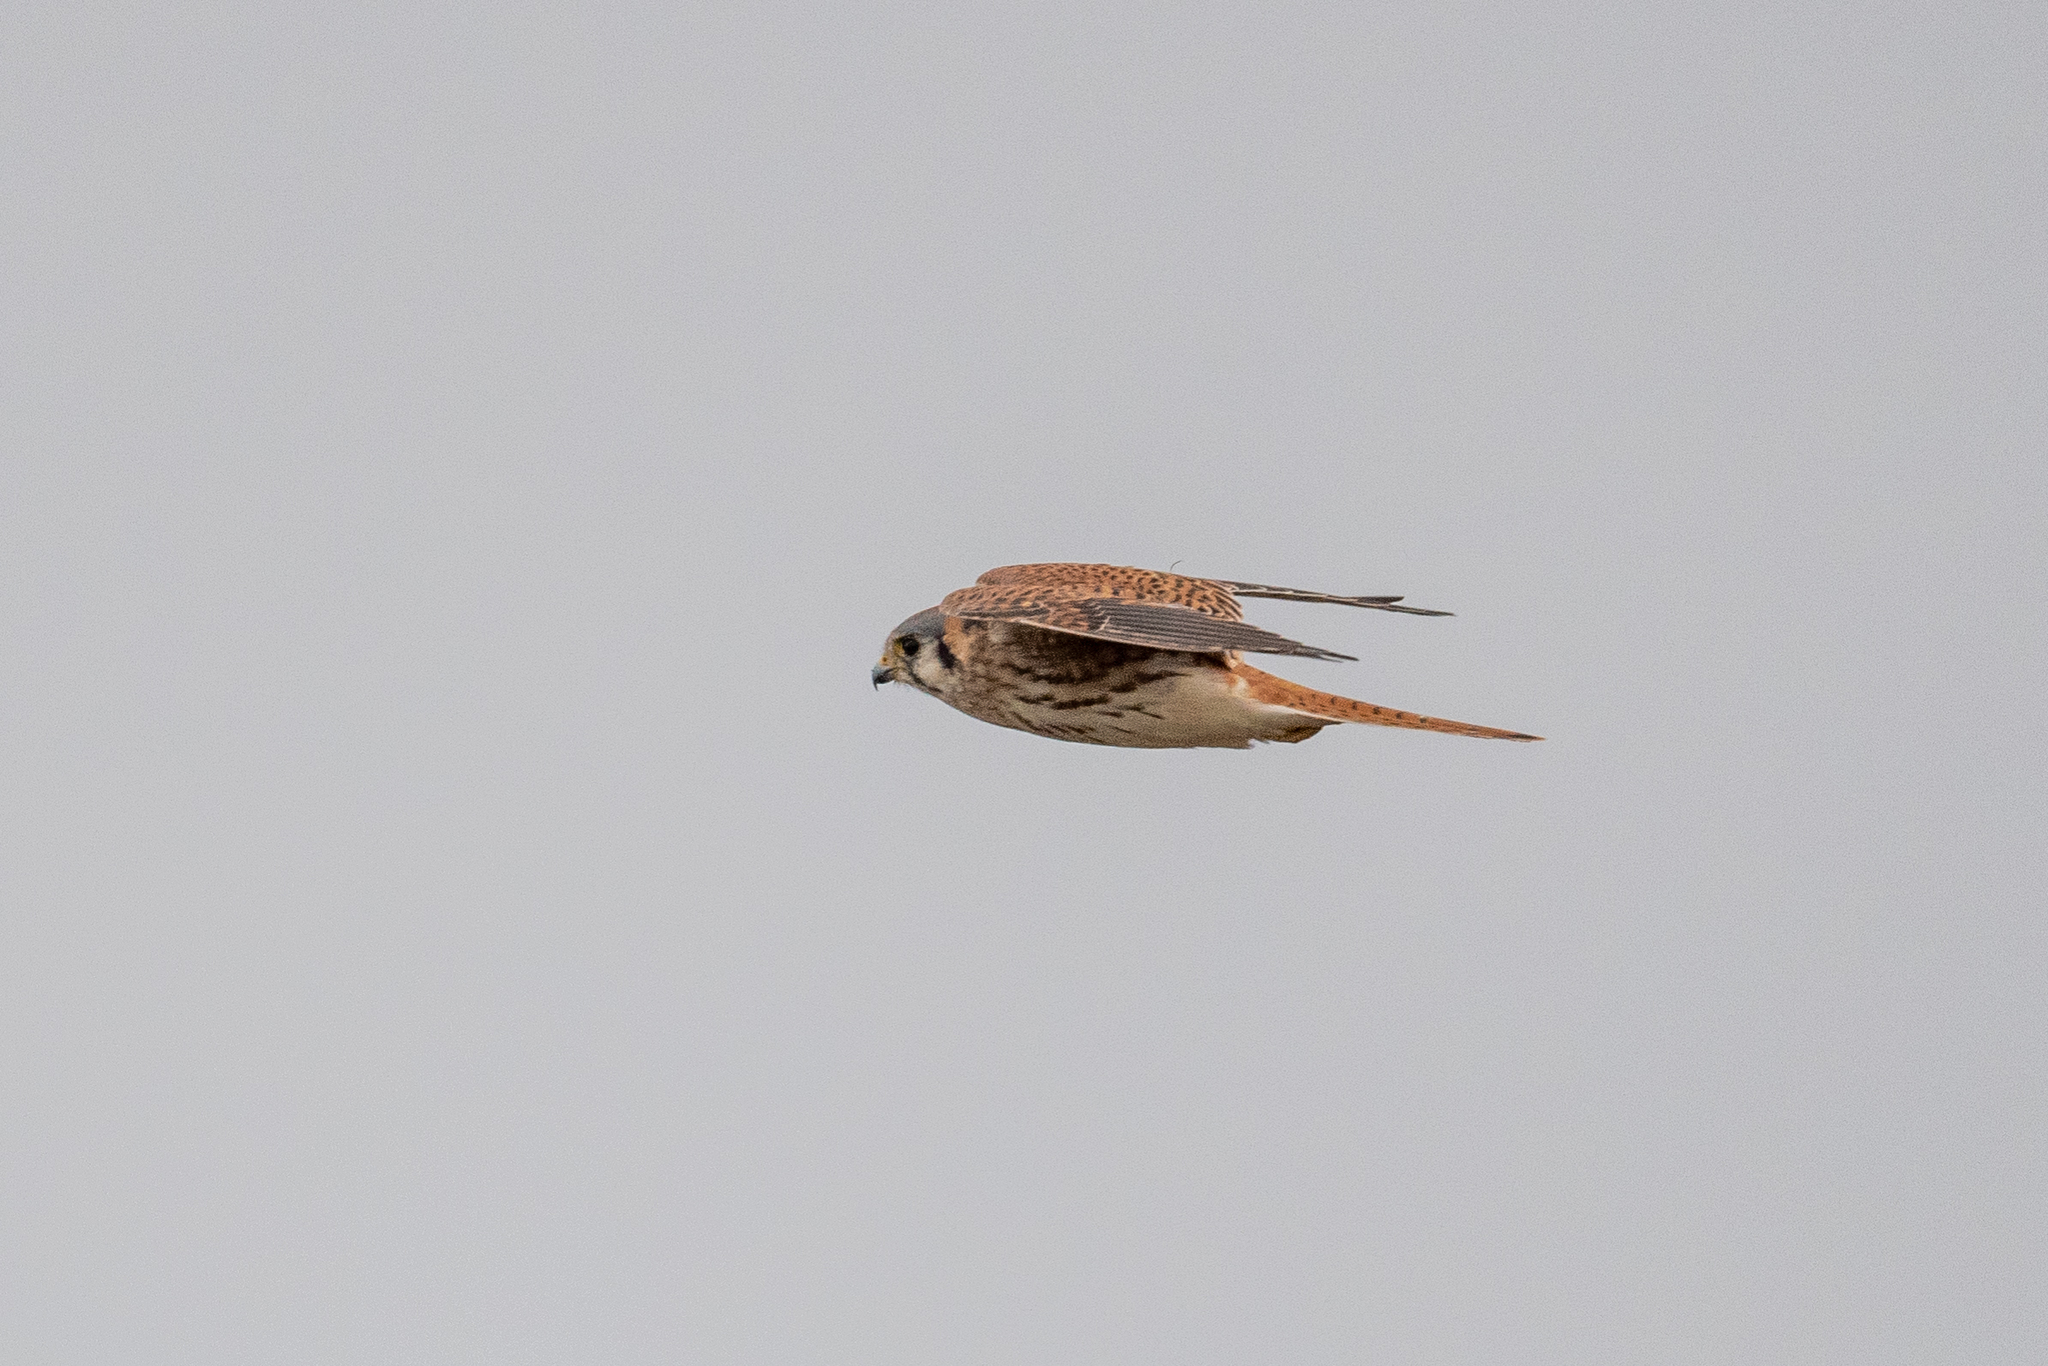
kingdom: Animalia
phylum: Chordata
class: Aves
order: Falconiformes
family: Falconidae
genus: Falco
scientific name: Falco sparverius
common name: American kestrel
